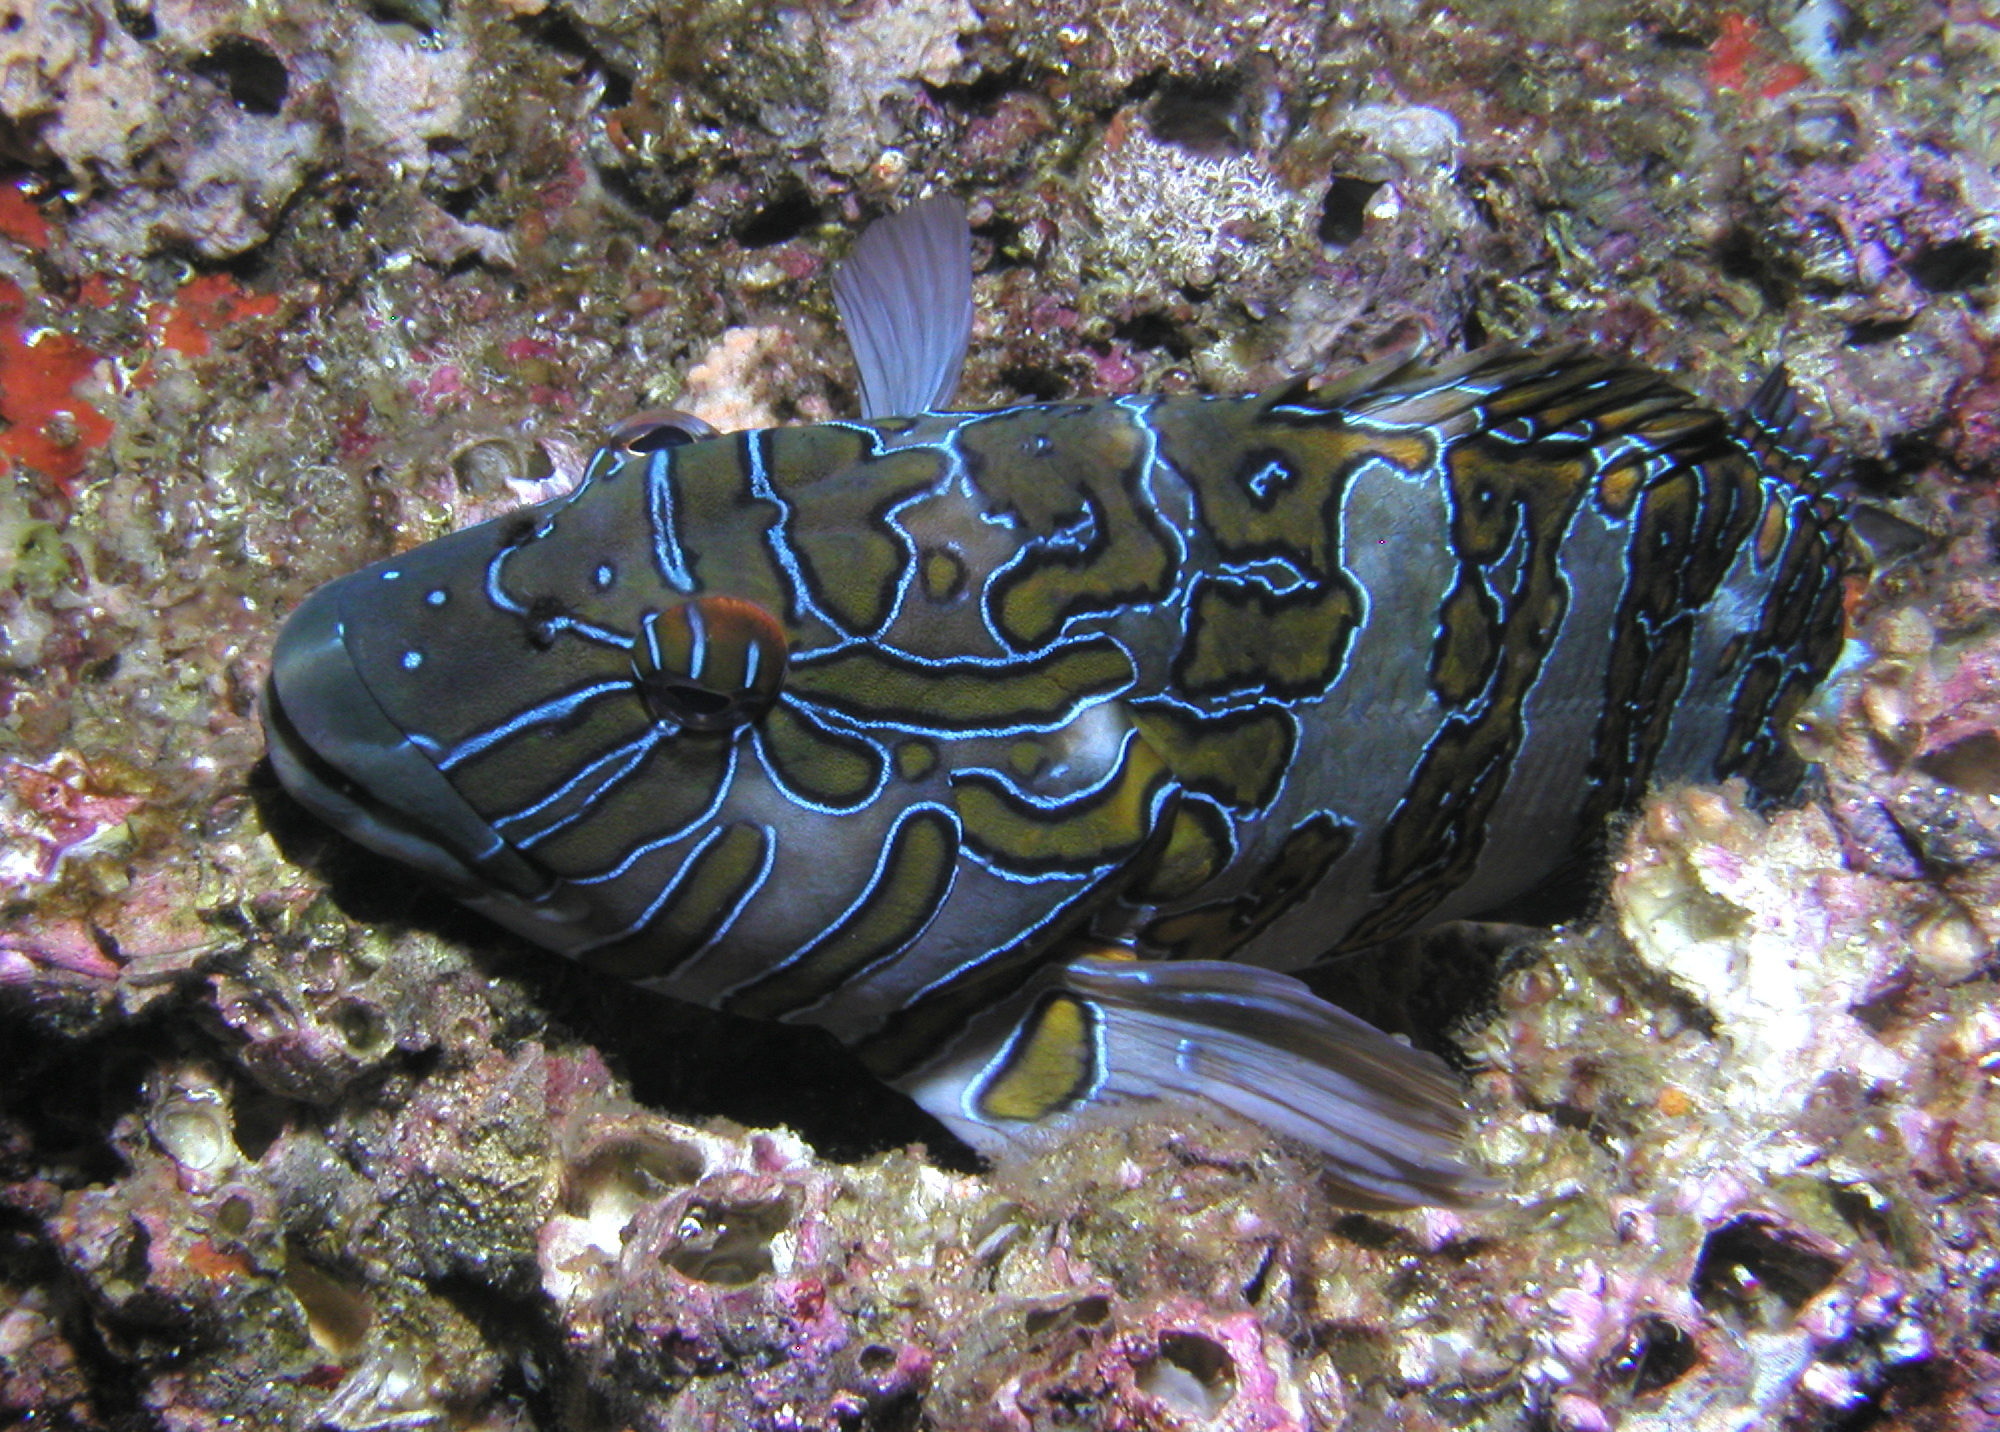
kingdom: Animalia
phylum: Chordata
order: Perciformes
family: Cirrhitidae
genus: Cirrhitus
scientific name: Cirrhitus rivulatus
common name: Giant hawkfish
